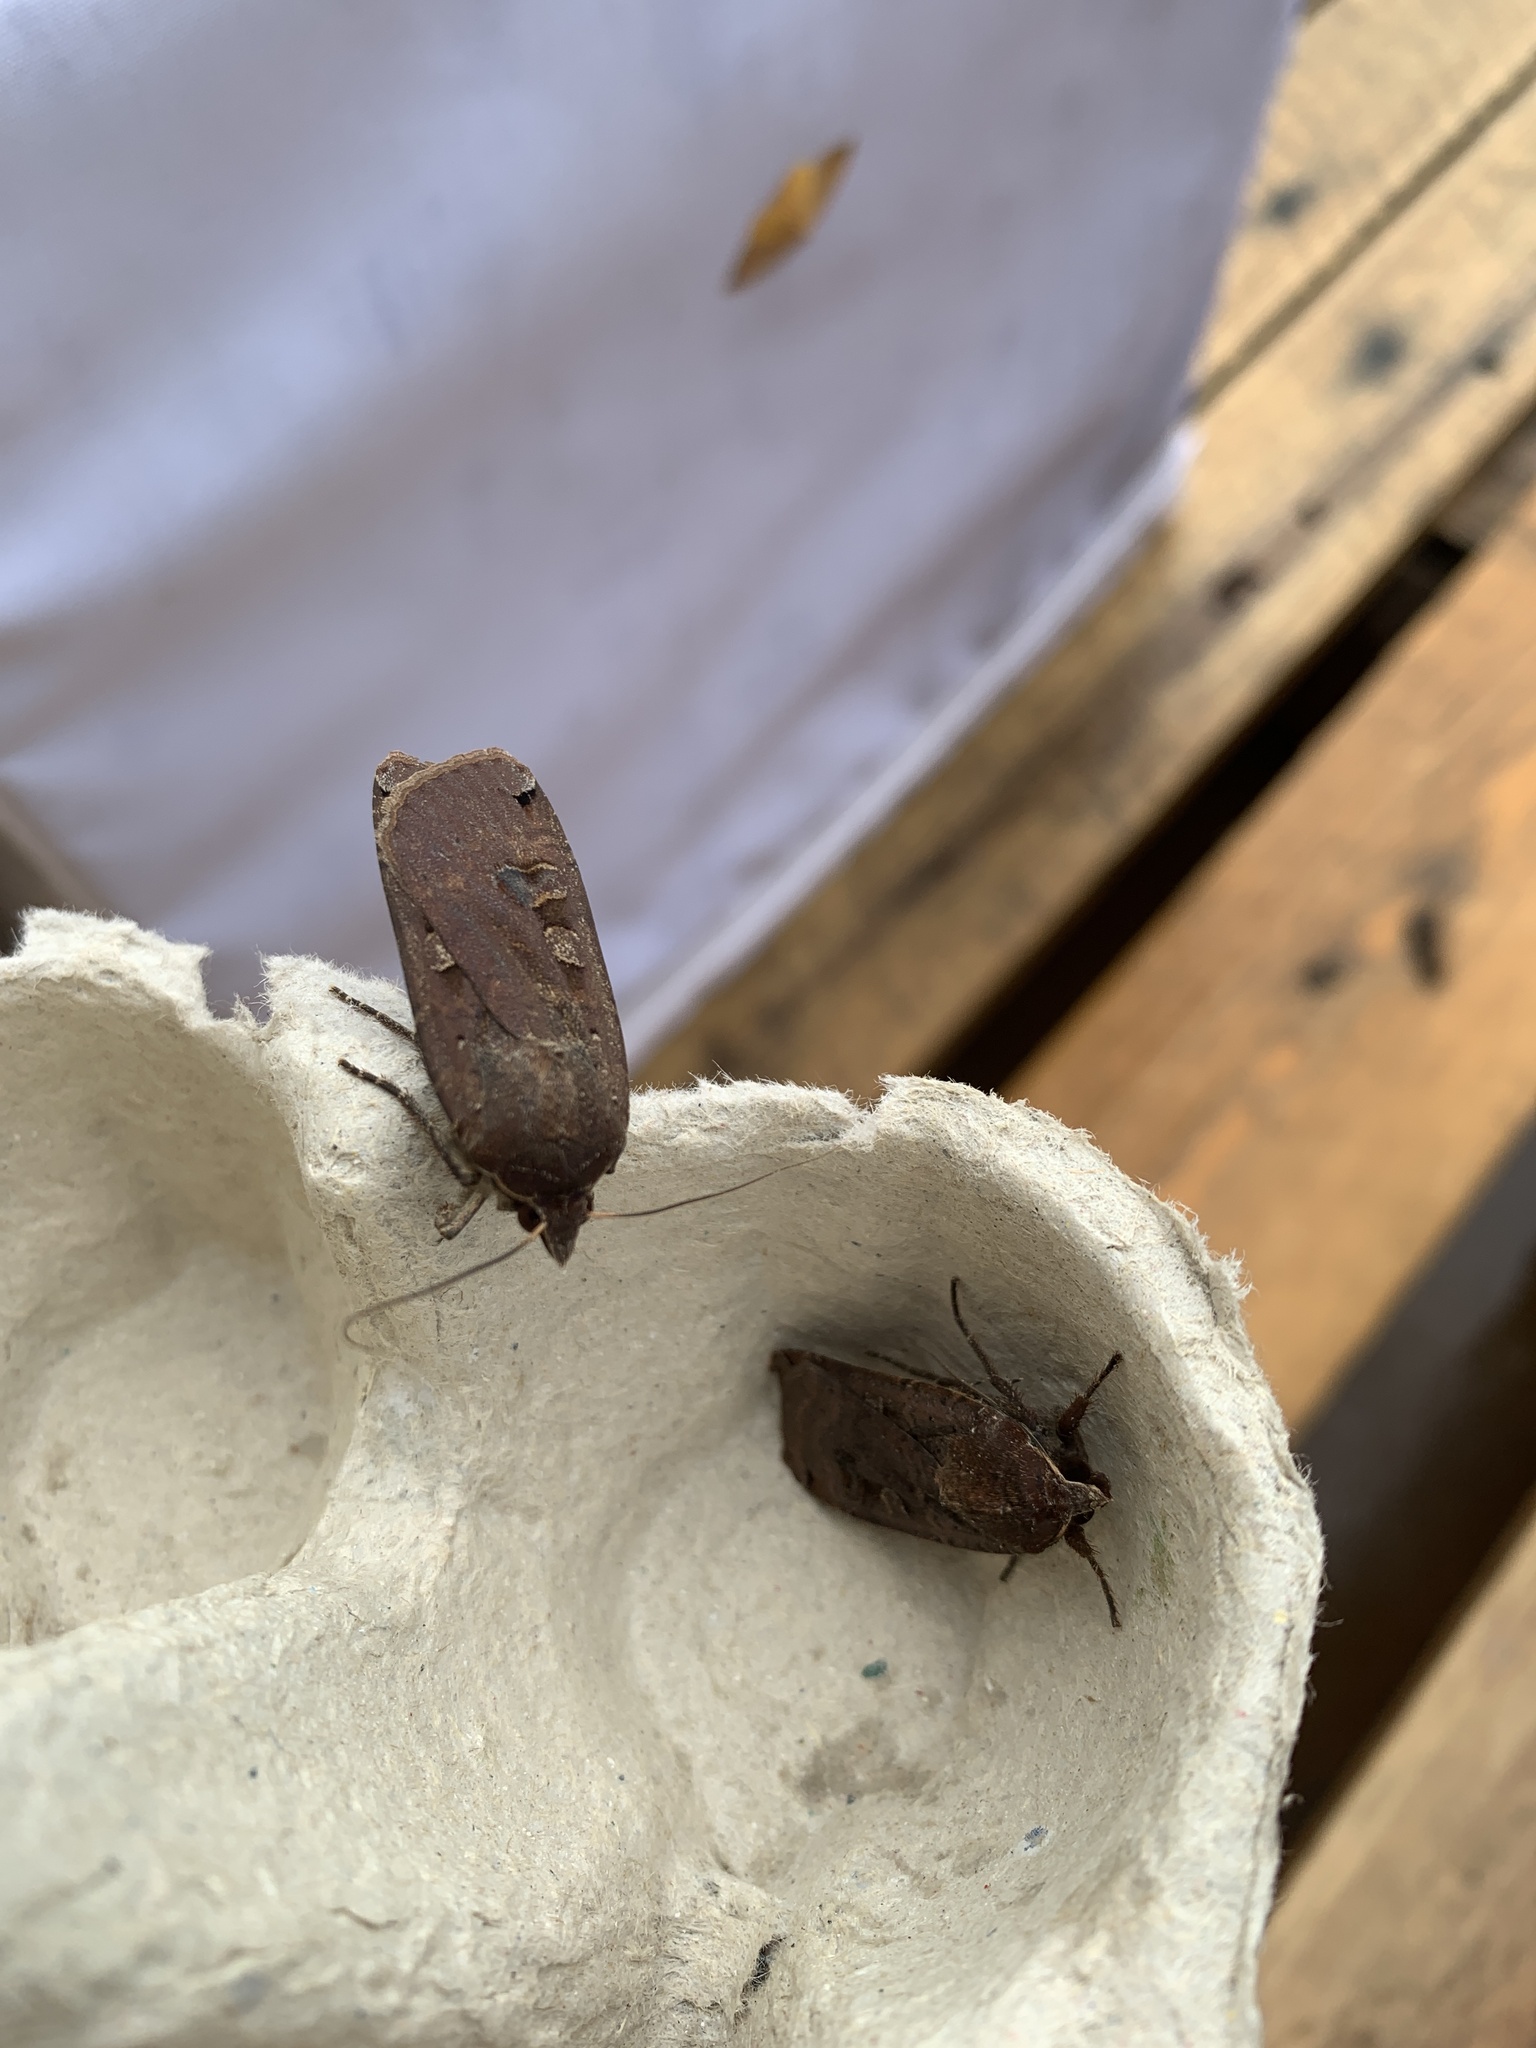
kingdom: Animalia
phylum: Arthropoda
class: Insecta
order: Lepidoptera
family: Noctuidae
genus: Noctua
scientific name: Noctua pronuba
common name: Large yellow underwing
